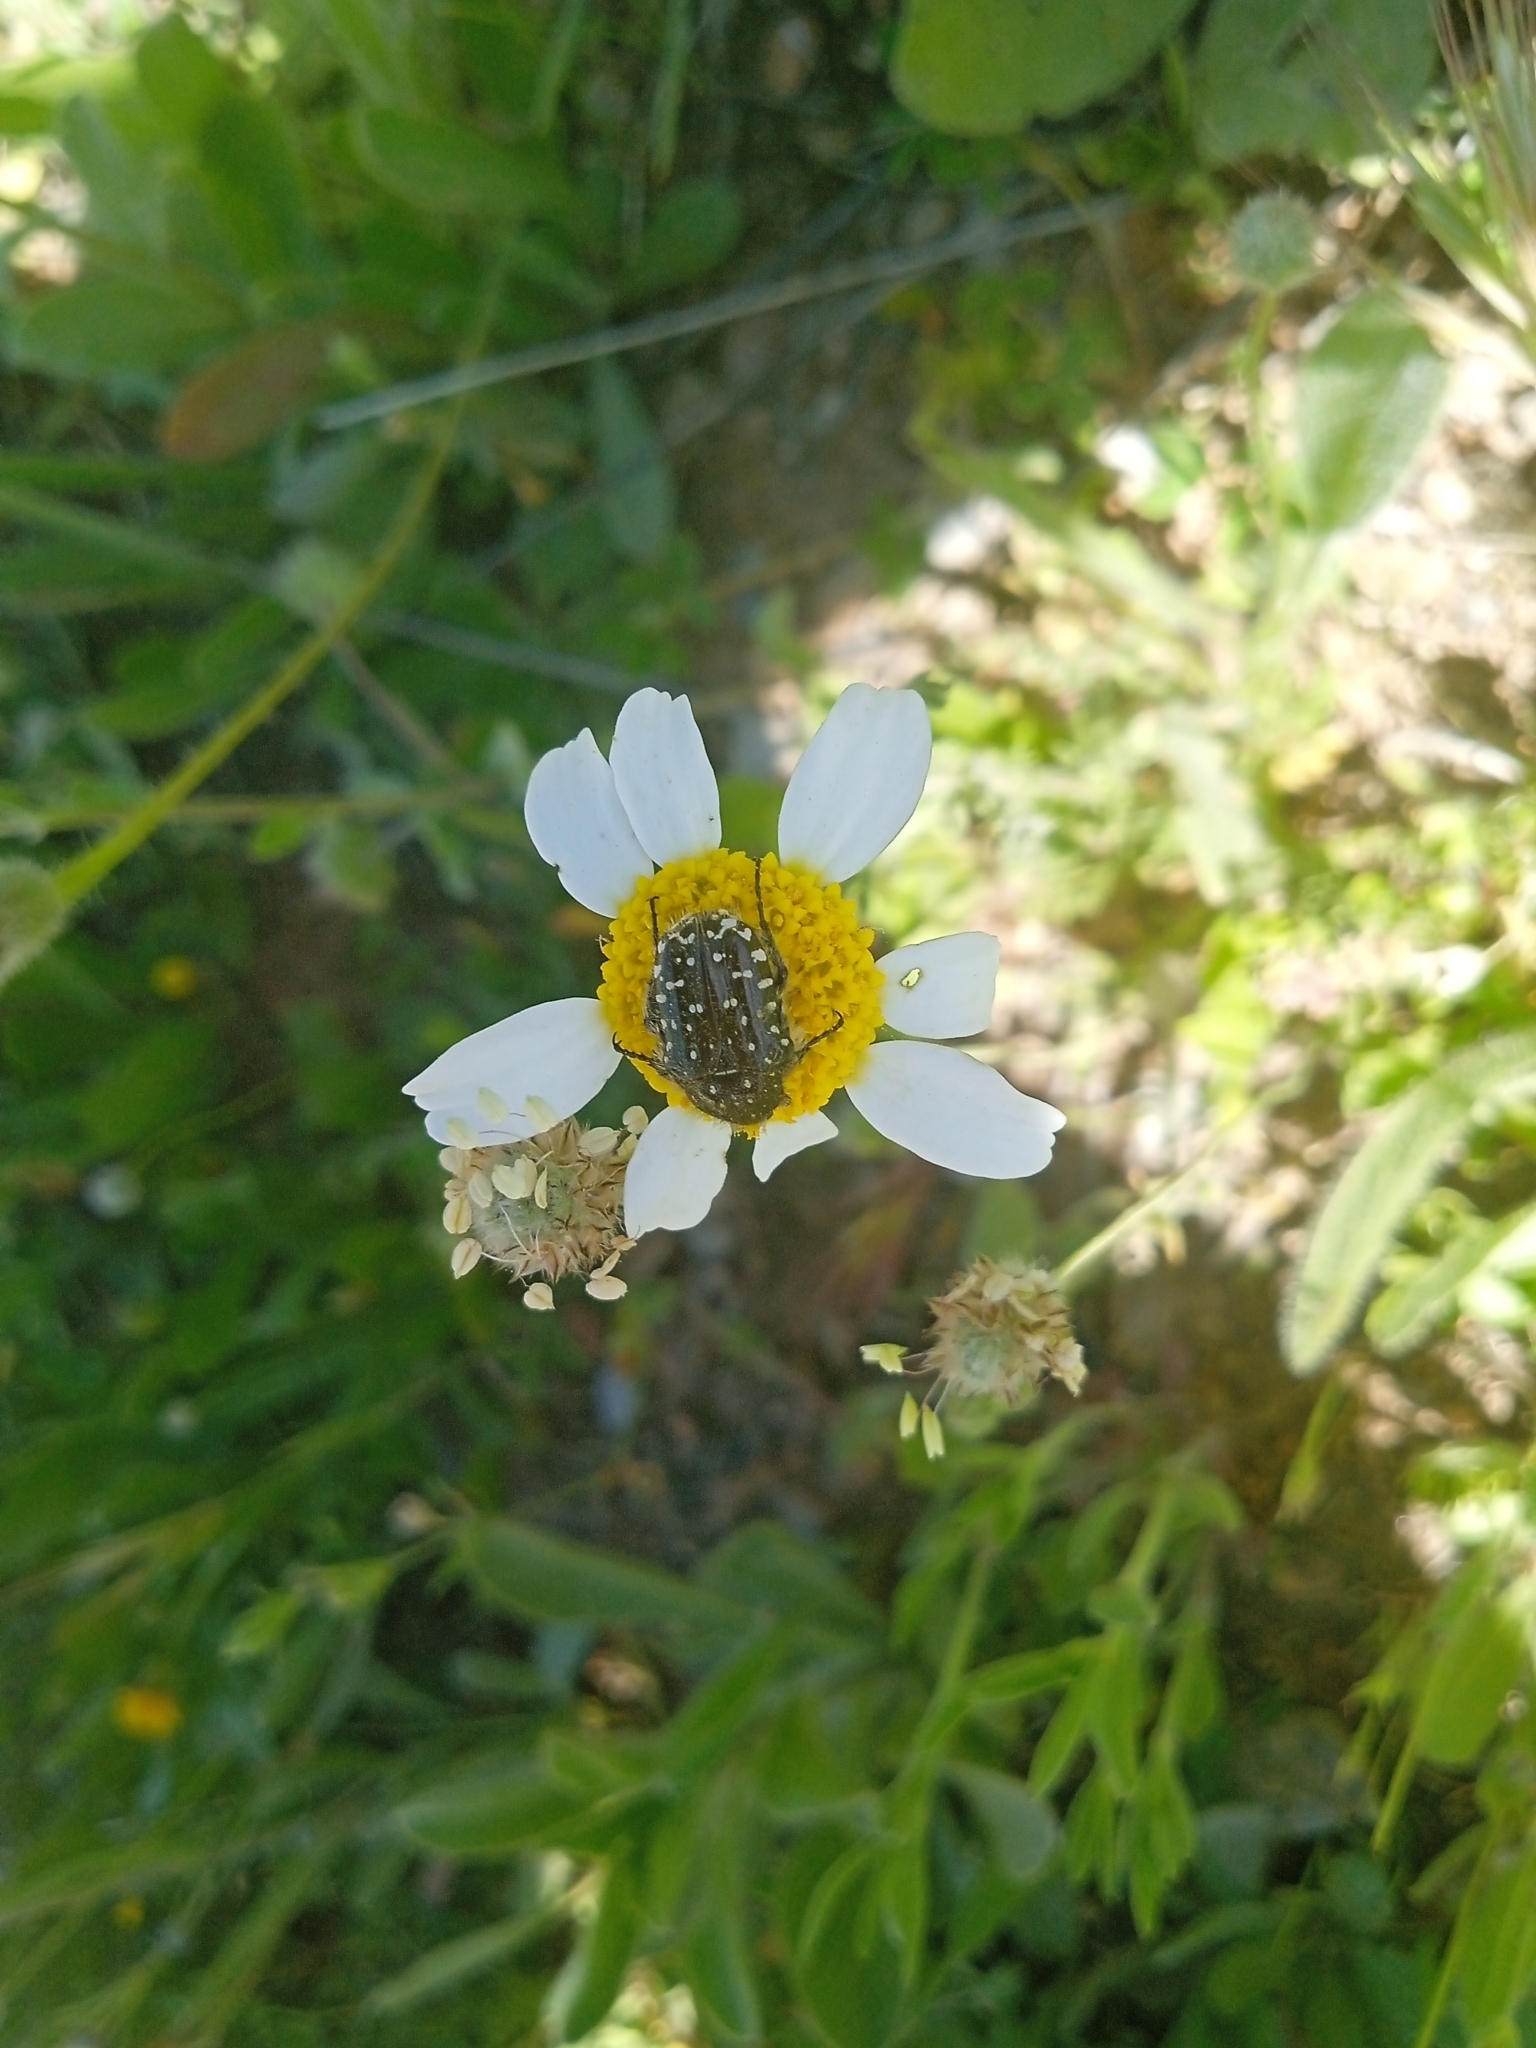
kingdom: Animalia
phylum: Arthropoda
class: Insecta
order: Coleoptera
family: Scarabaeidae
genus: Oxythyrea
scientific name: Oxythyrea funesta
